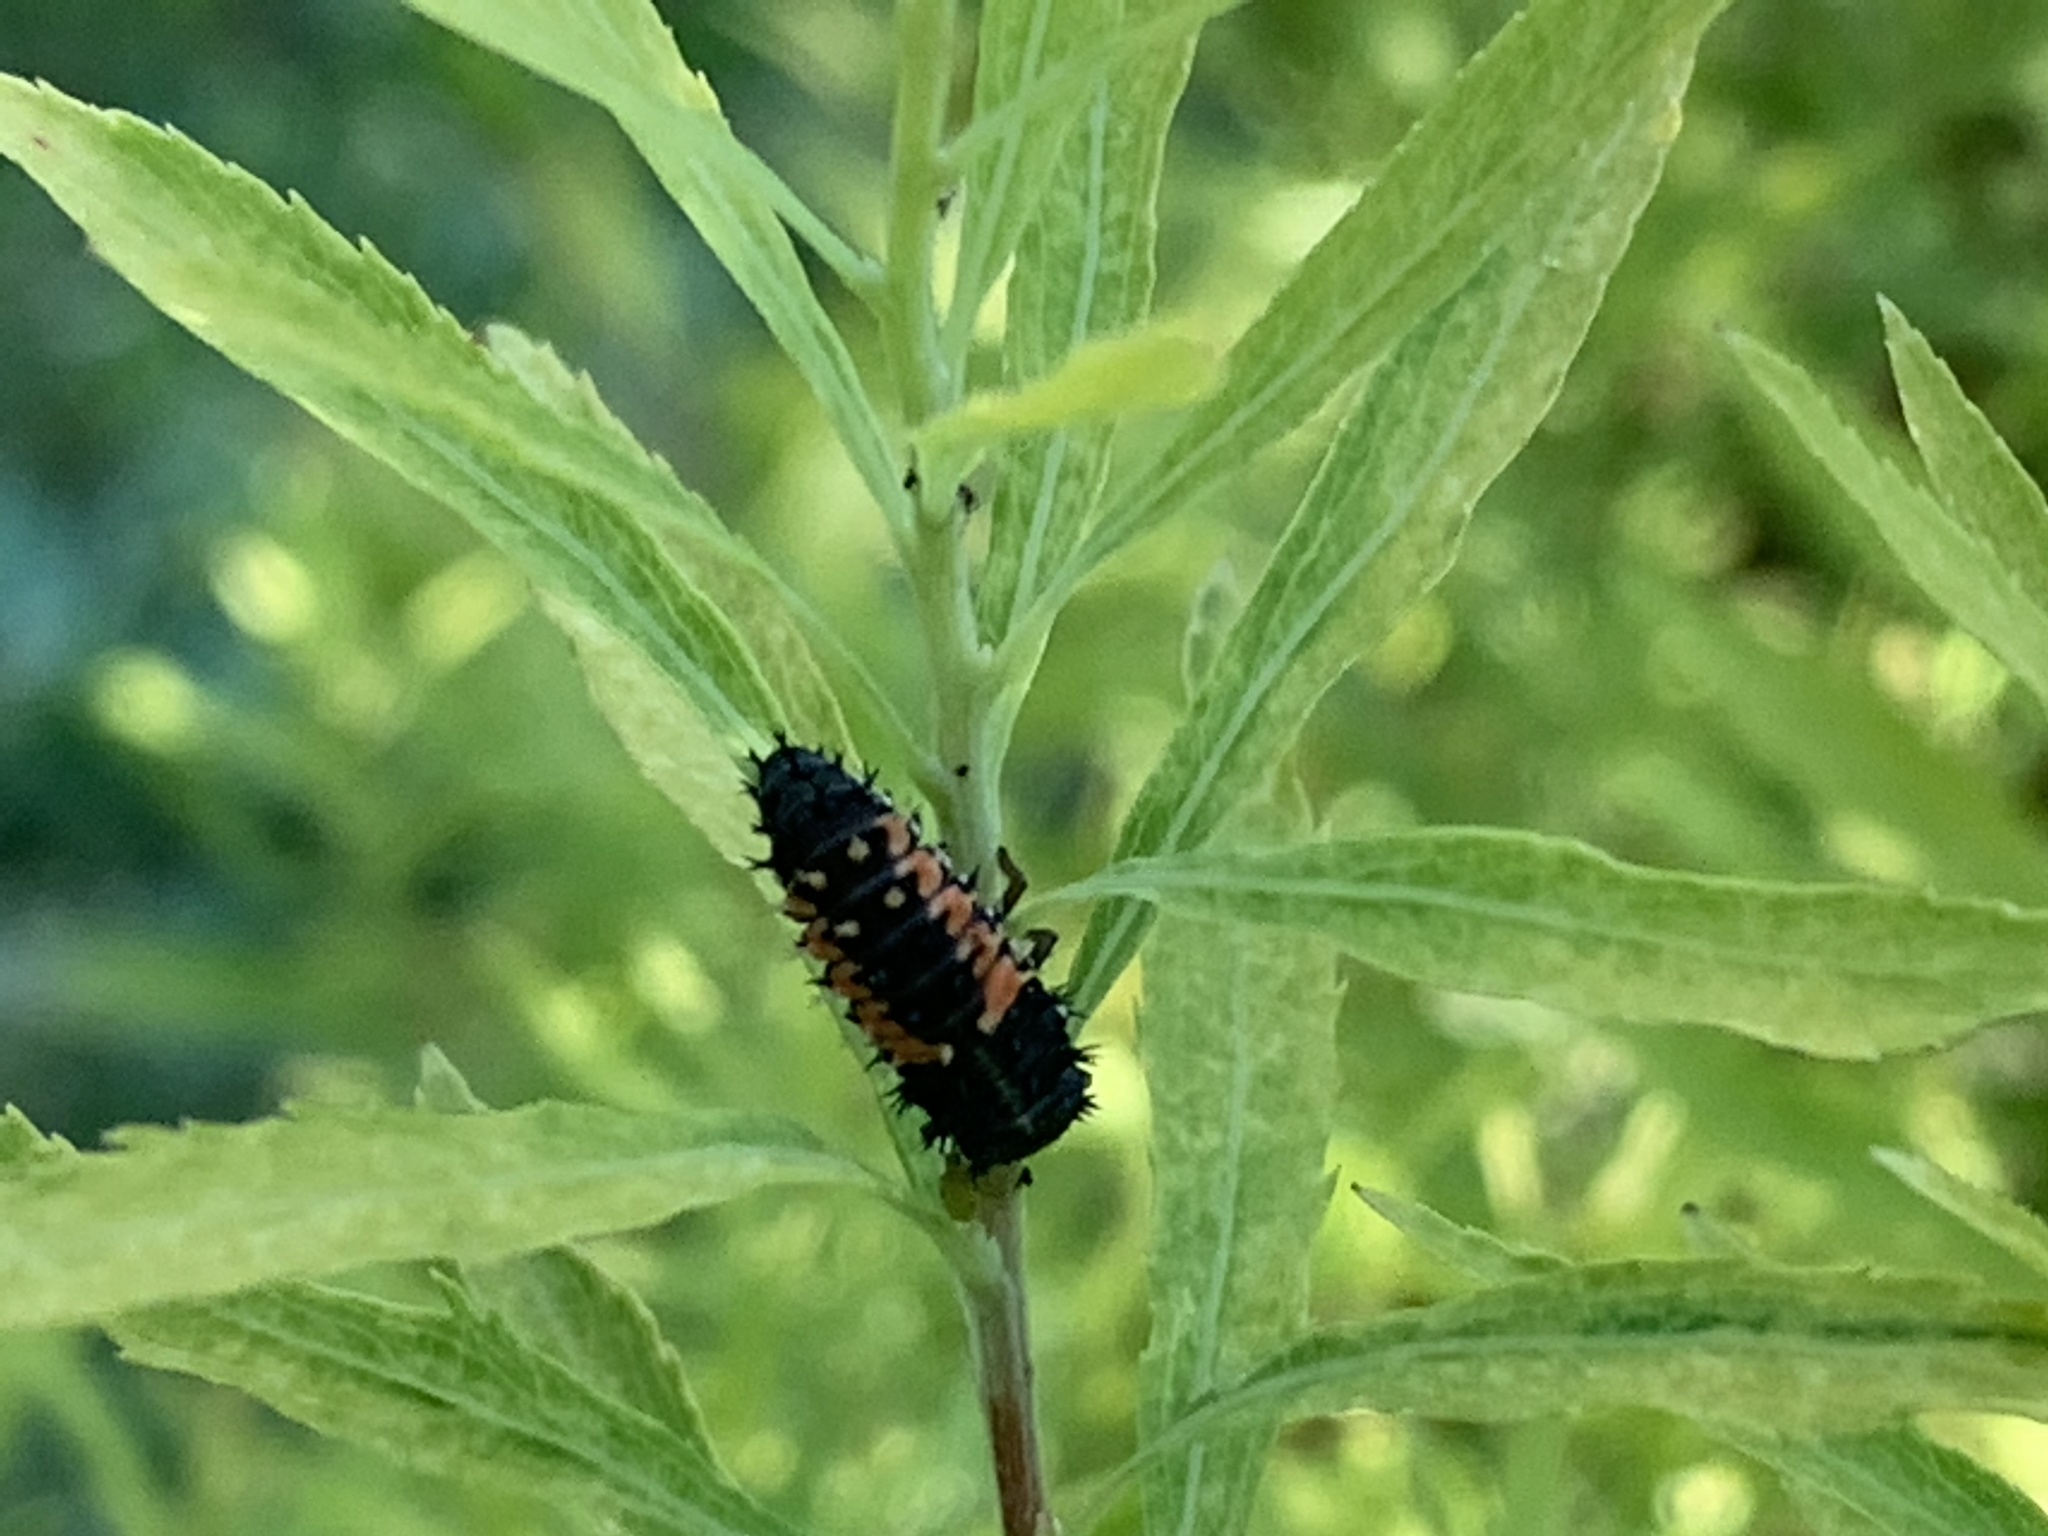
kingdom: Animalia
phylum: Arthropoda
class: Insecta
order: Coleoptera
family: Coccinellidae
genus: Harmonia
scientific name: Harmonia axyridis
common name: Harlequin ladybird
